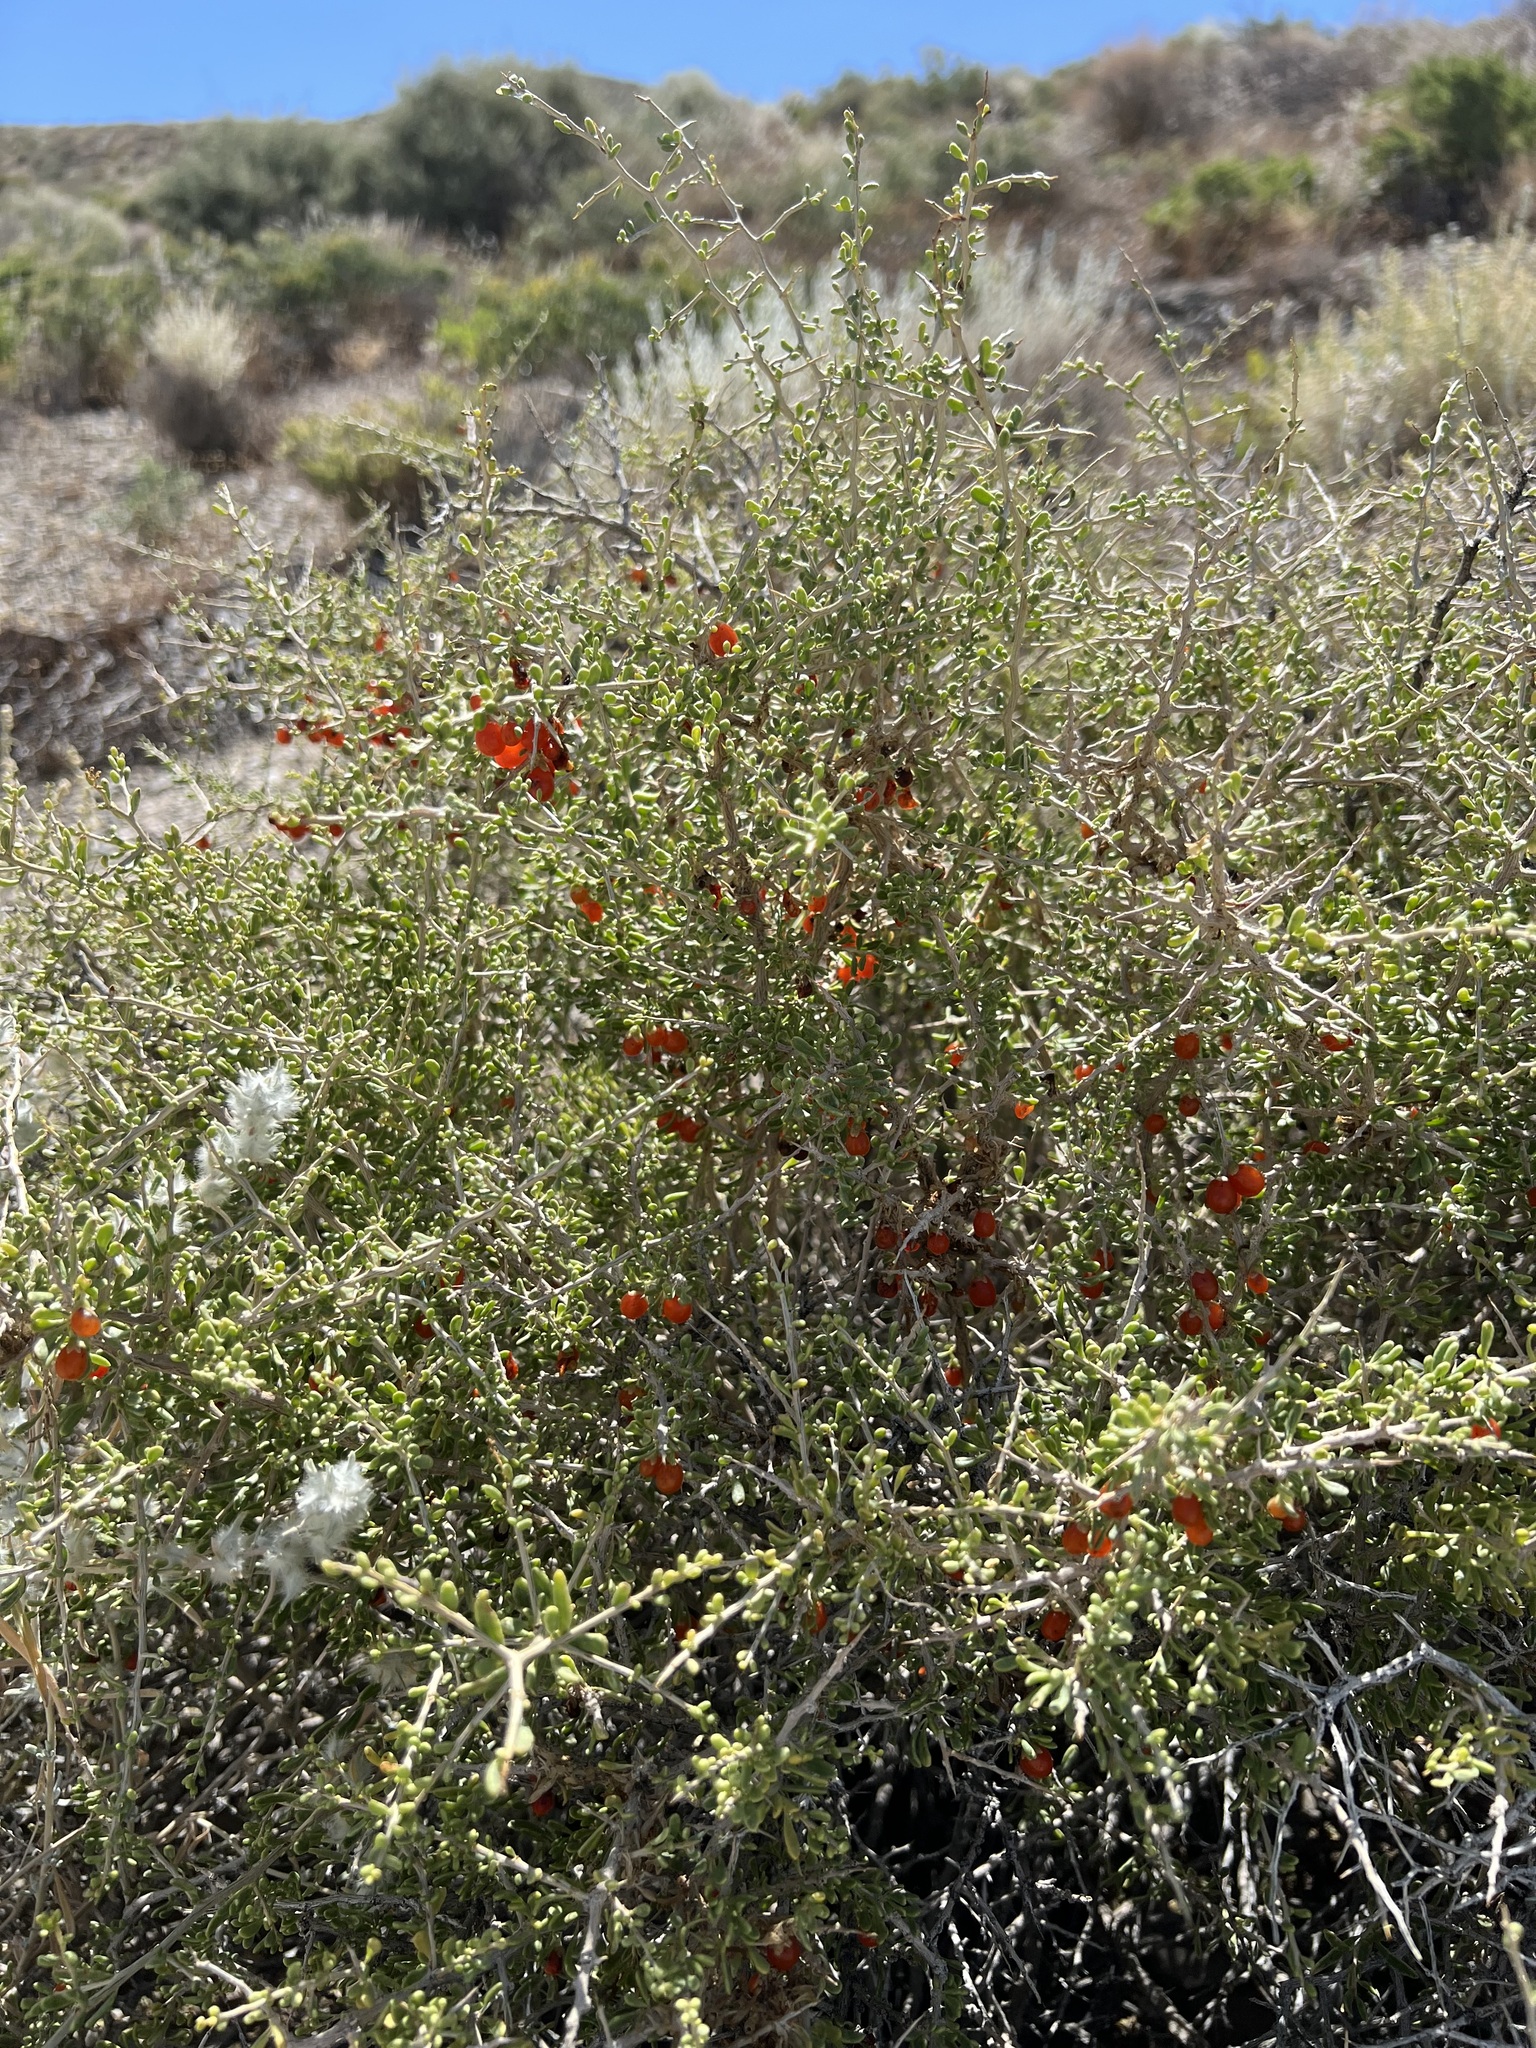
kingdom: Plantae
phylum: Tracheophyta
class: Magnoliopsida
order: Solanales
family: Solanaceae
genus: Lycium
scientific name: Lycium andersonii
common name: Water-jacket
